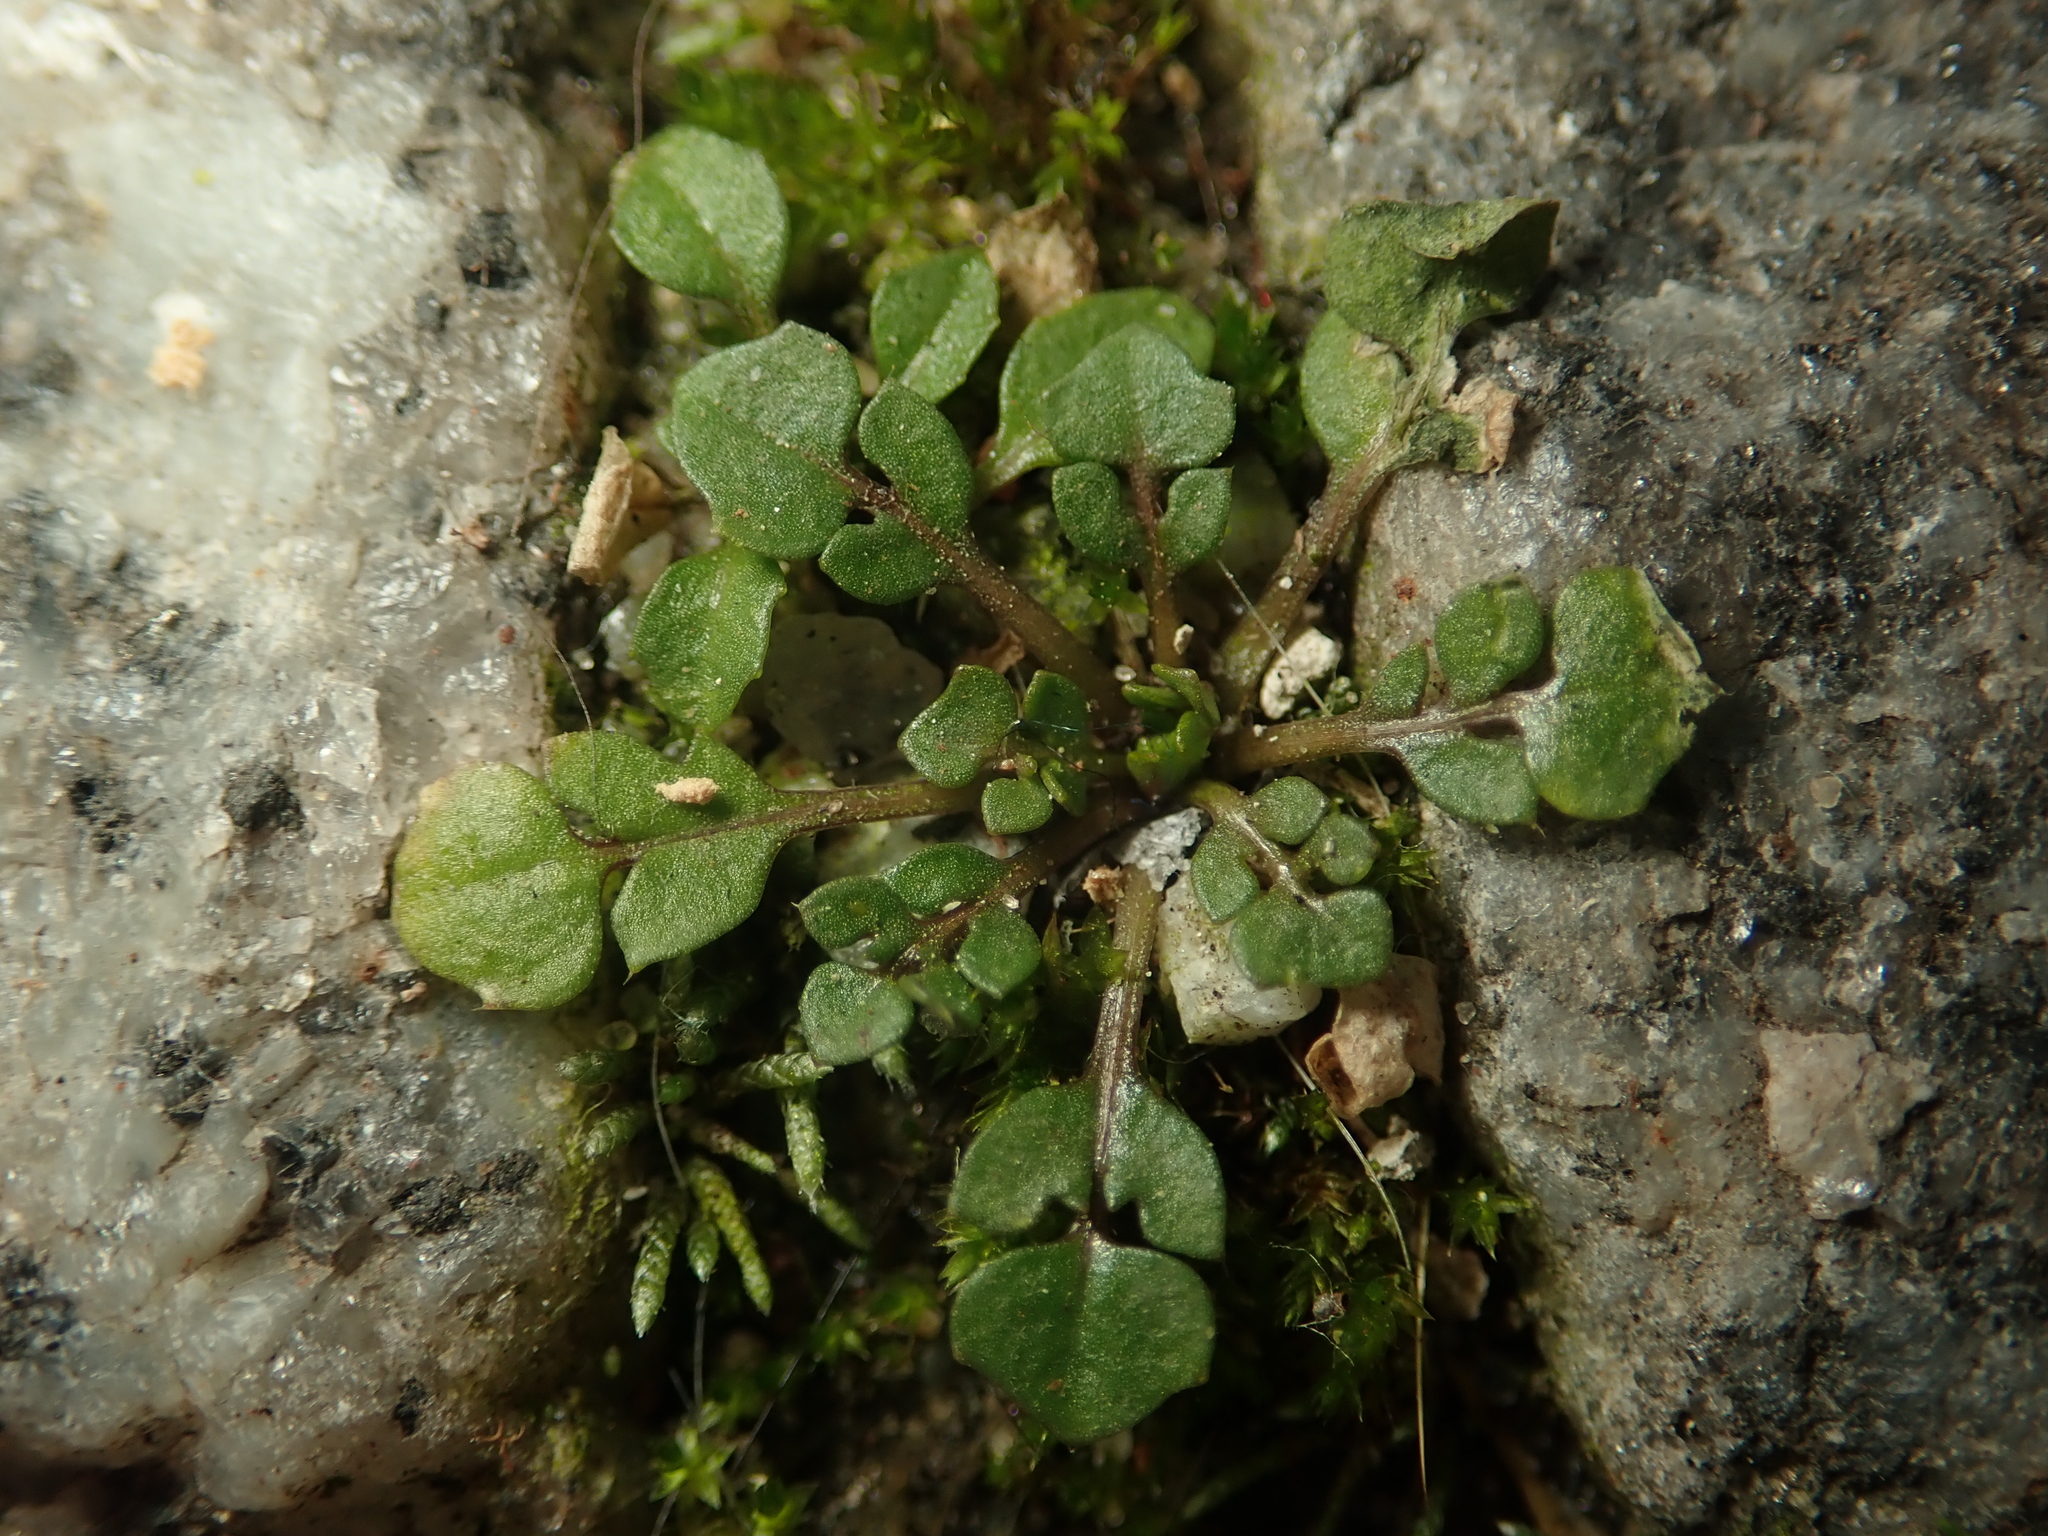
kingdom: Plantae
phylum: Tracheophyta
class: Magnoliopsida
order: Brassicales
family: Brassicaceae
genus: Capsella
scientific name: Capsella bursa-pastoris
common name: Shepherd's purse
